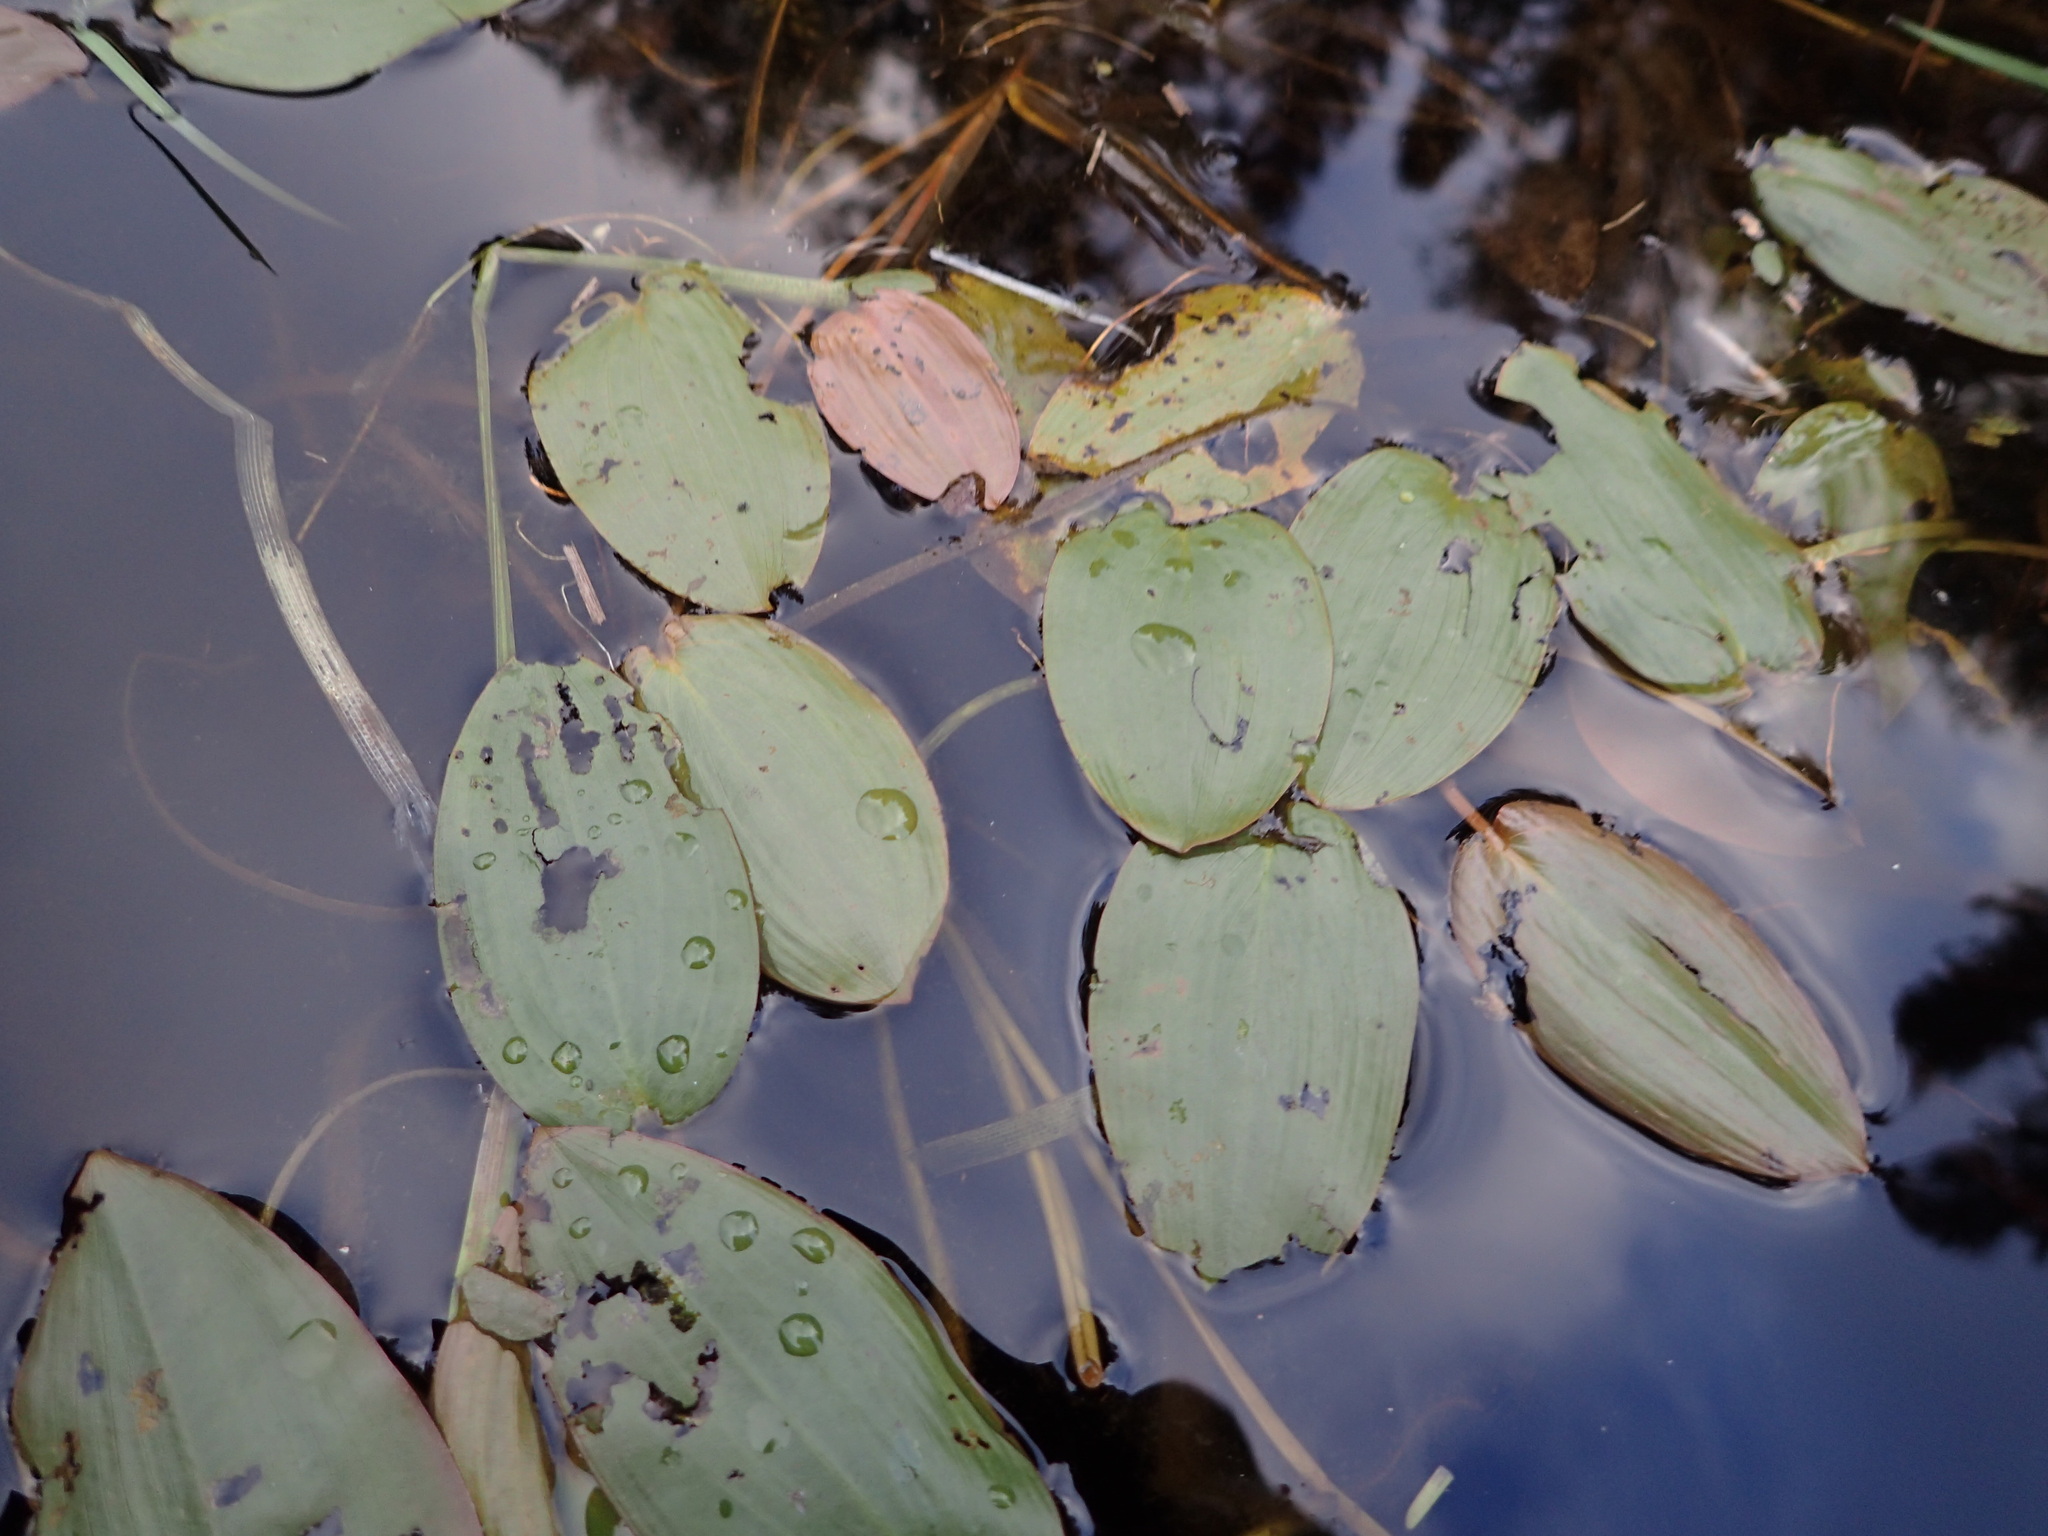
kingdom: Plantae
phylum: Tracheophyta
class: Liliopsida
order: Alismatales
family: Potamogetonaceae
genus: Potamogeton
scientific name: Potamogeton natans
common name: Broad-leaved pondweed
